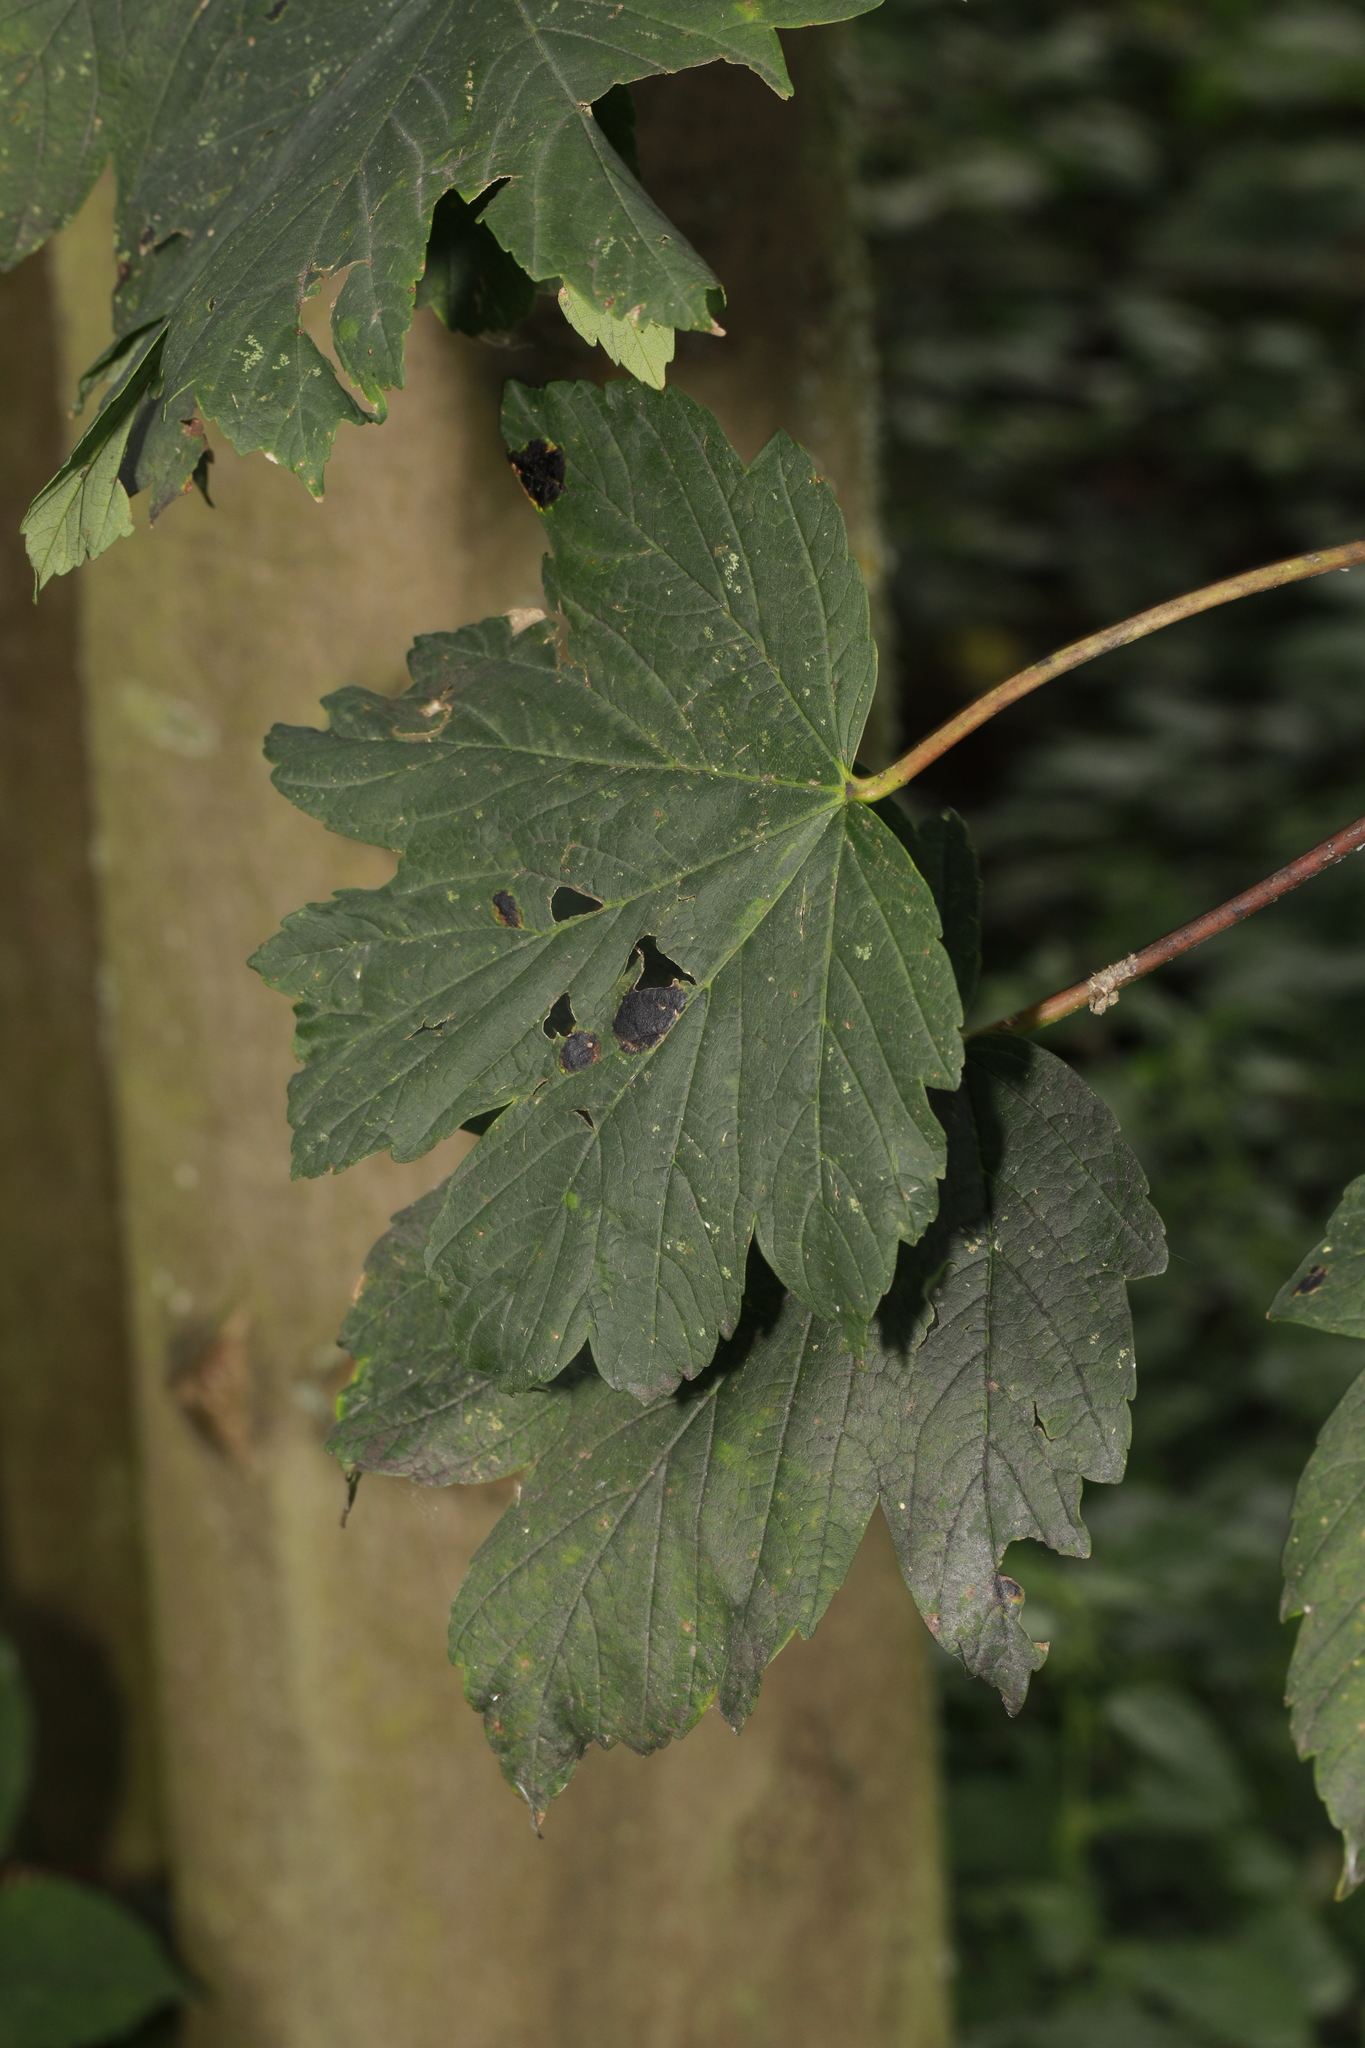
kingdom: Plantae
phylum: Tracheophyta
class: Magnoliopsida
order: Sapindales
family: Sapindaceae
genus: Acer
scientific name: Acer pseudoplatanus
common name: Sycamore
